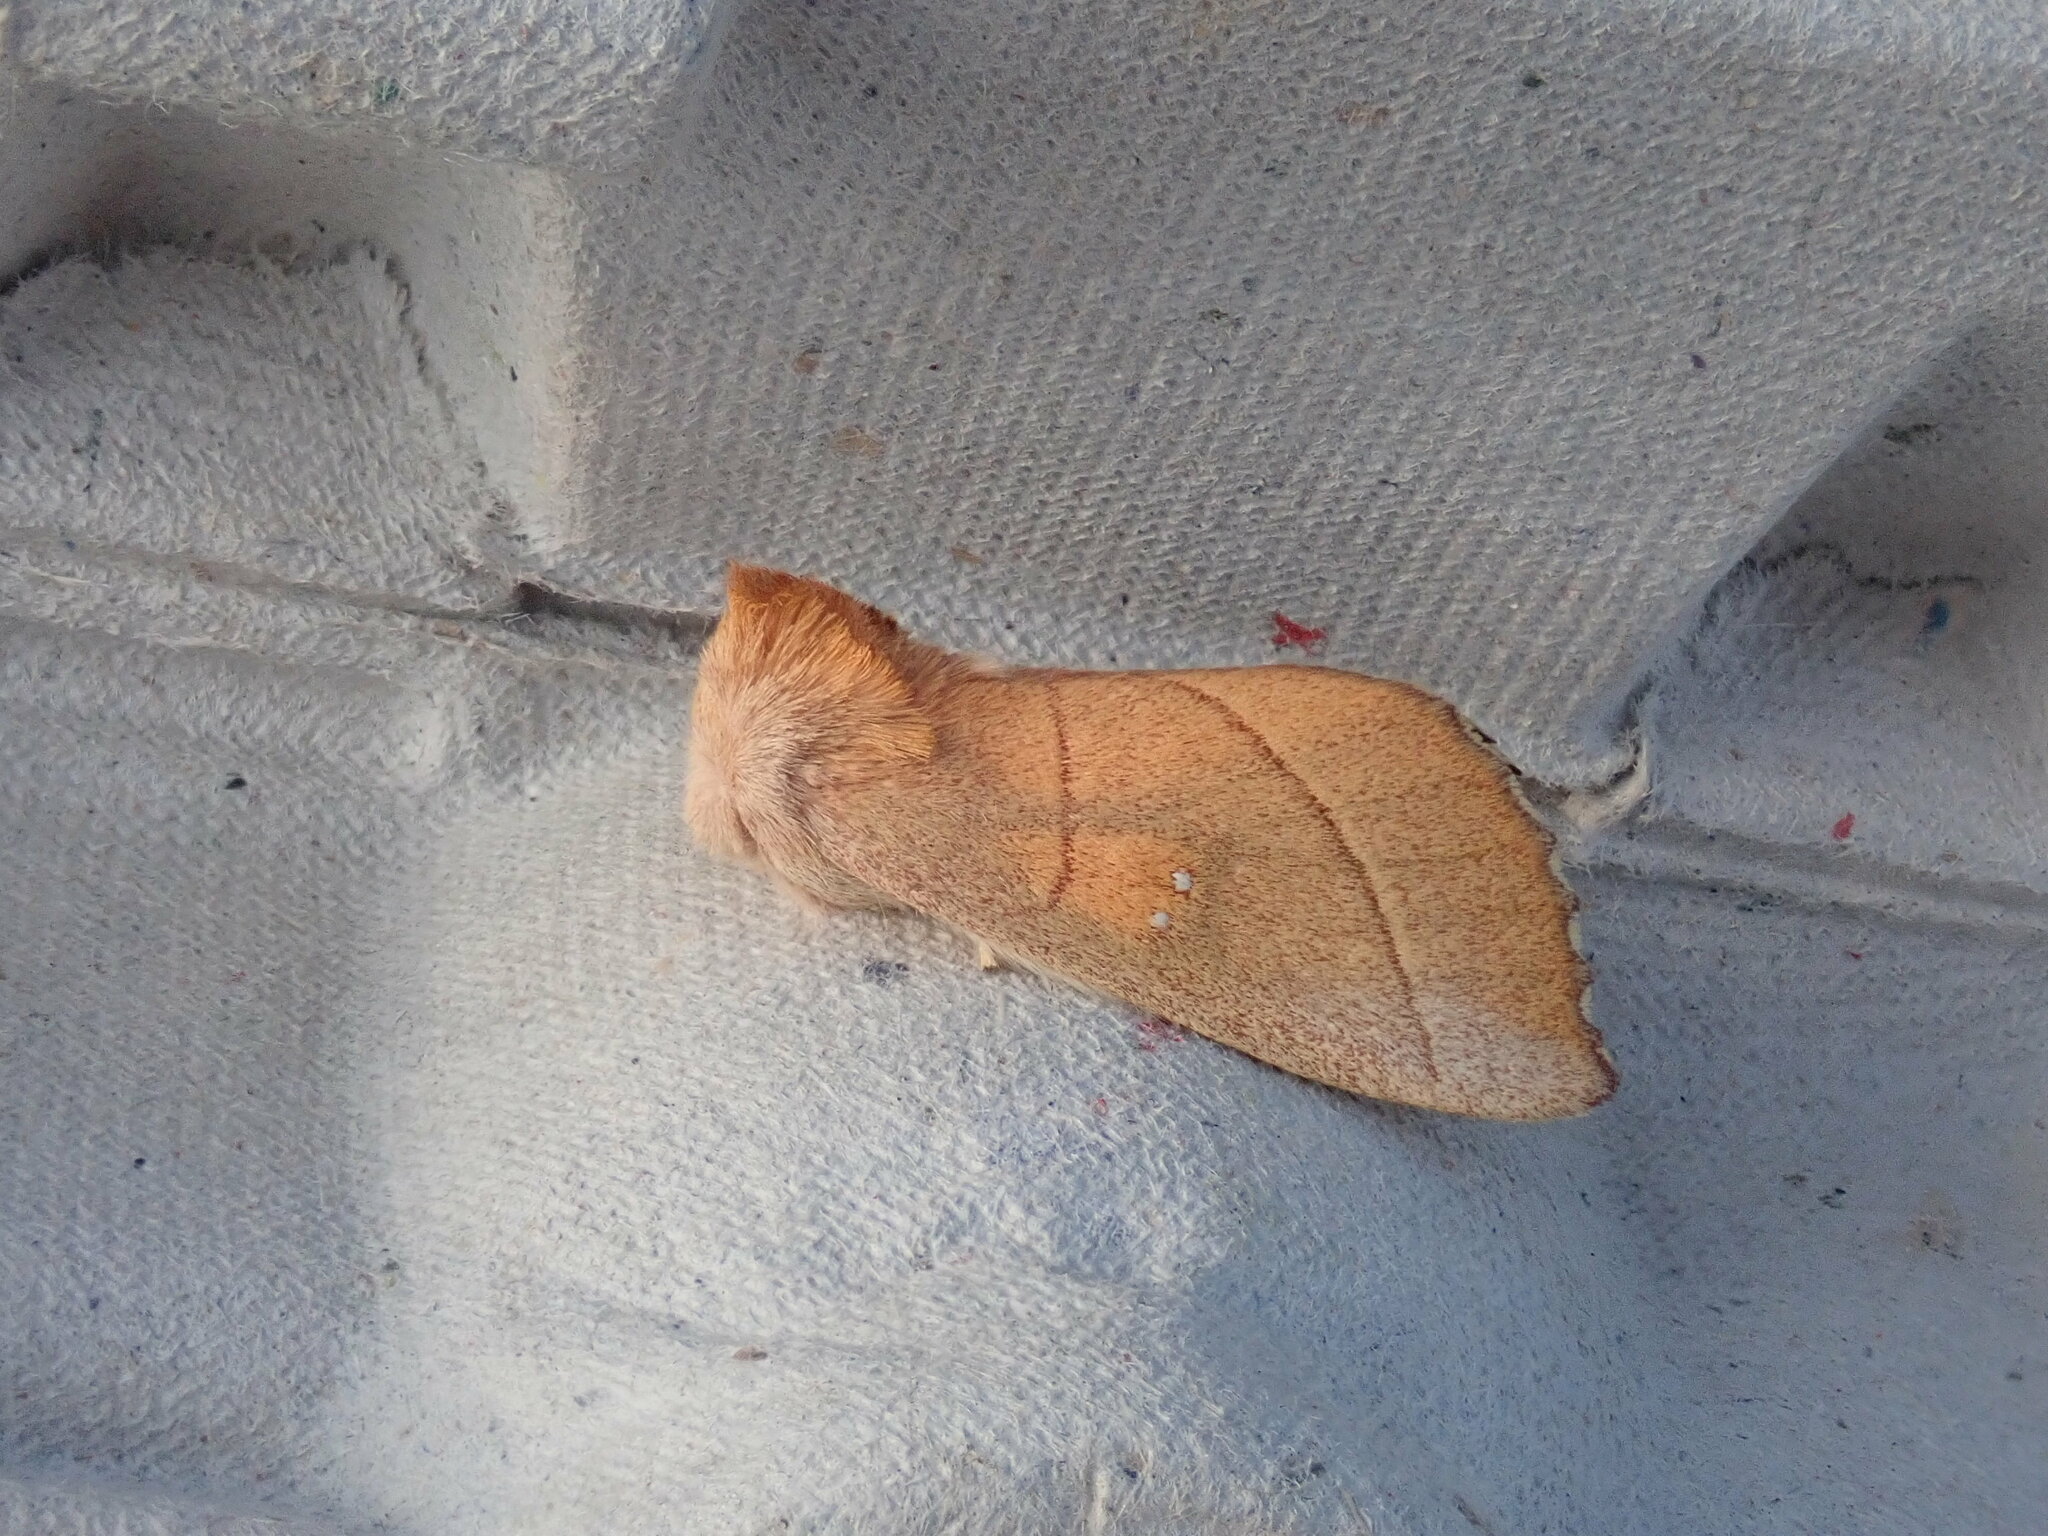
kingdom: Animalia
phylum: Arthropoda
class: Insecta
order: Lepidoptera
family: Notodontidae
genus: Nadata
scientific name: Nadata gibbosa
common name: White-dotted prominent
